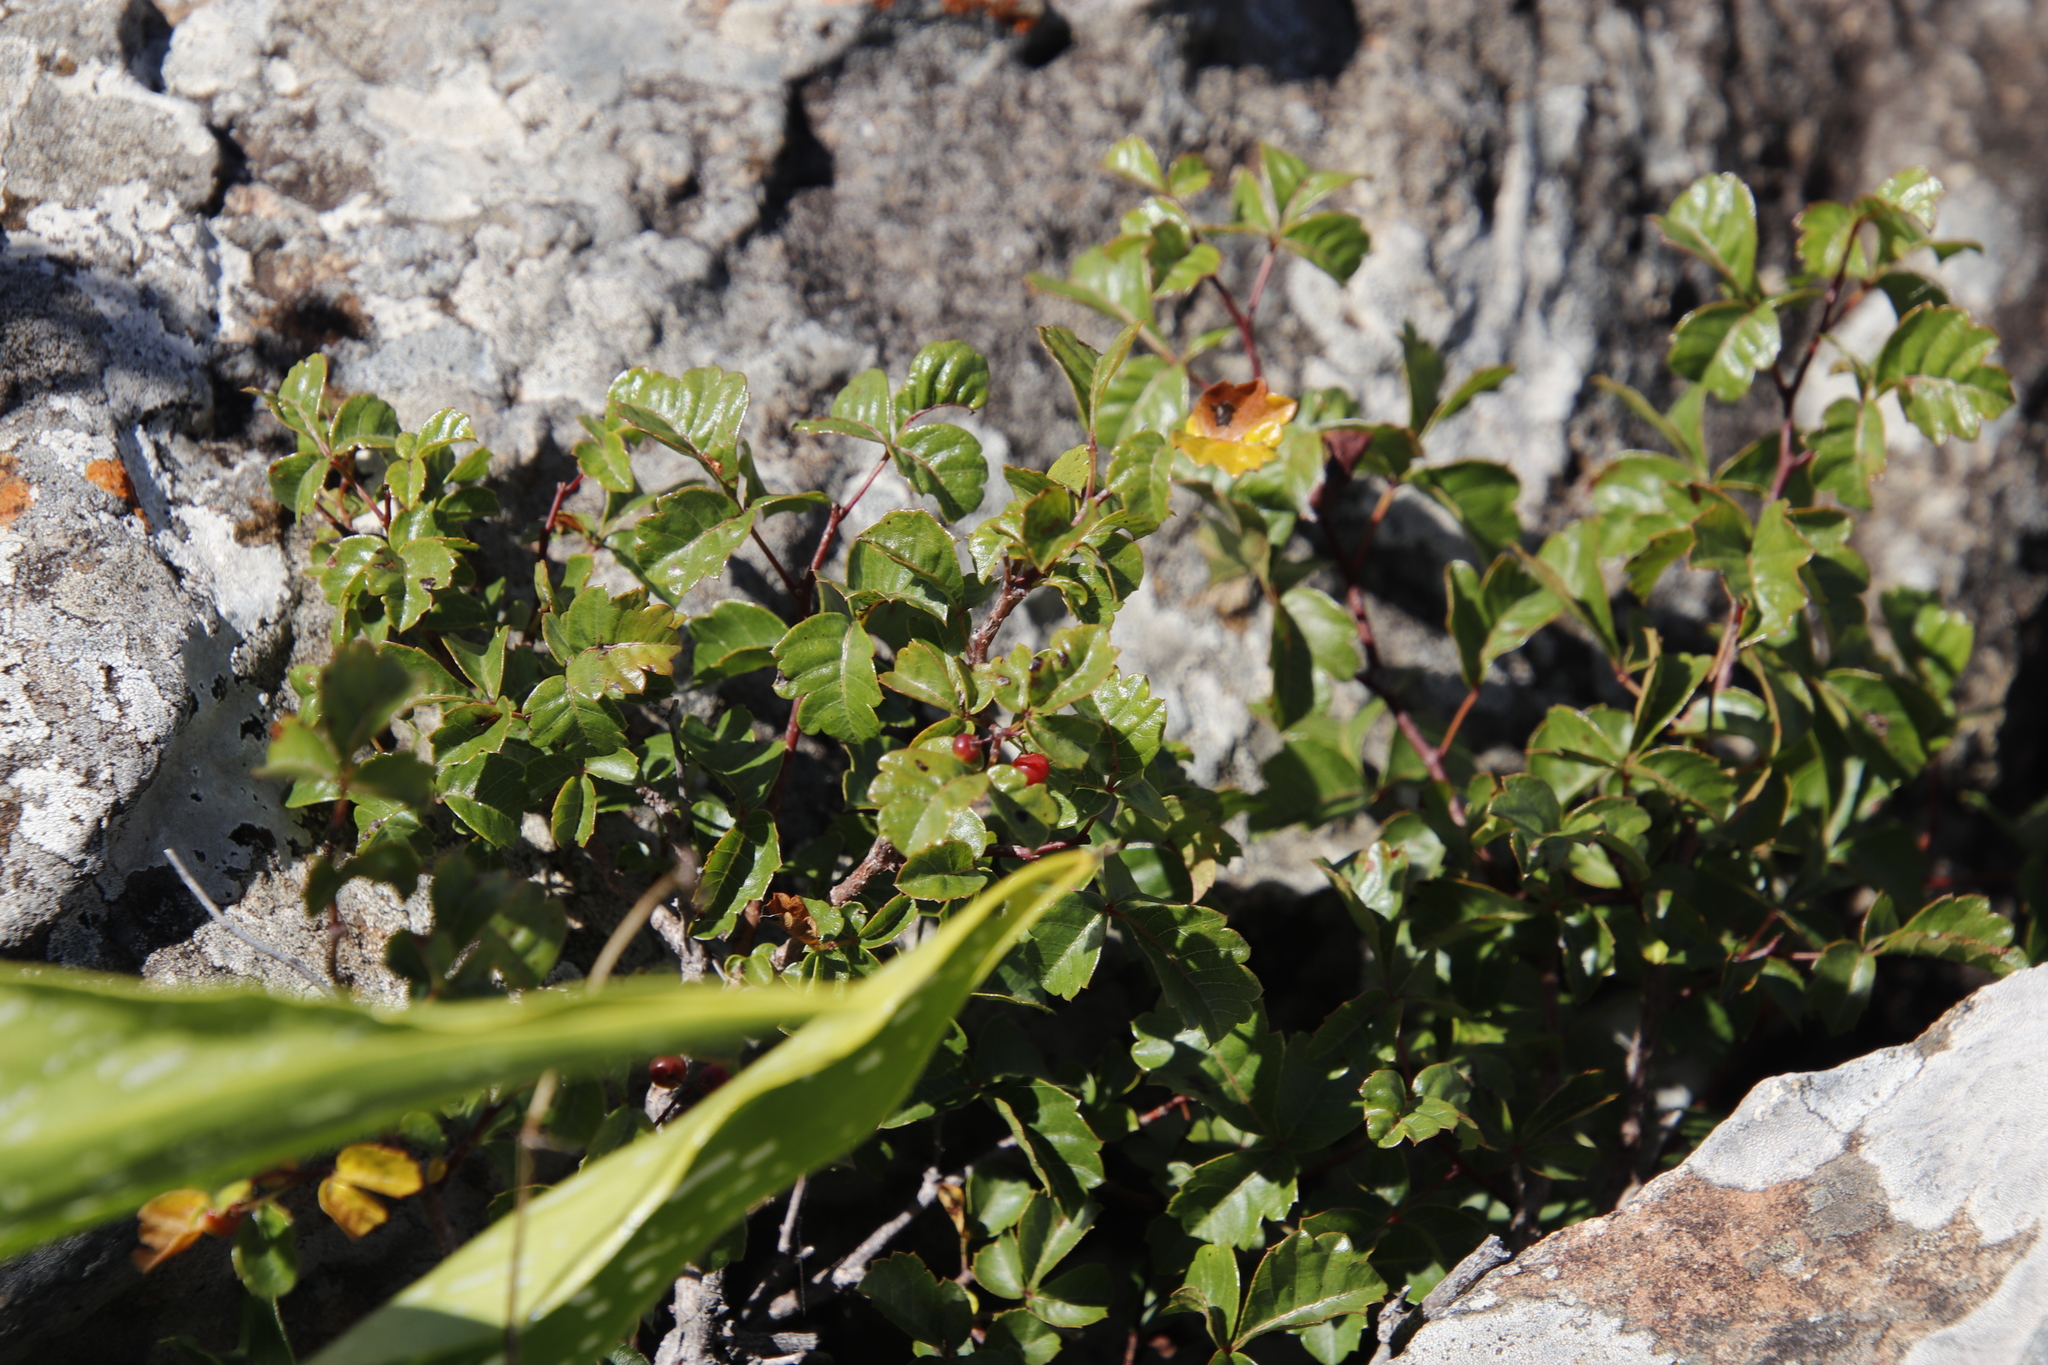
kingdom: Plantae
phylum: Tracheophyta
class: Magnoliopsida
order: Sapindales
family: Anacardiaceae
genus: Searsia
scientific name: Searsia dentata
